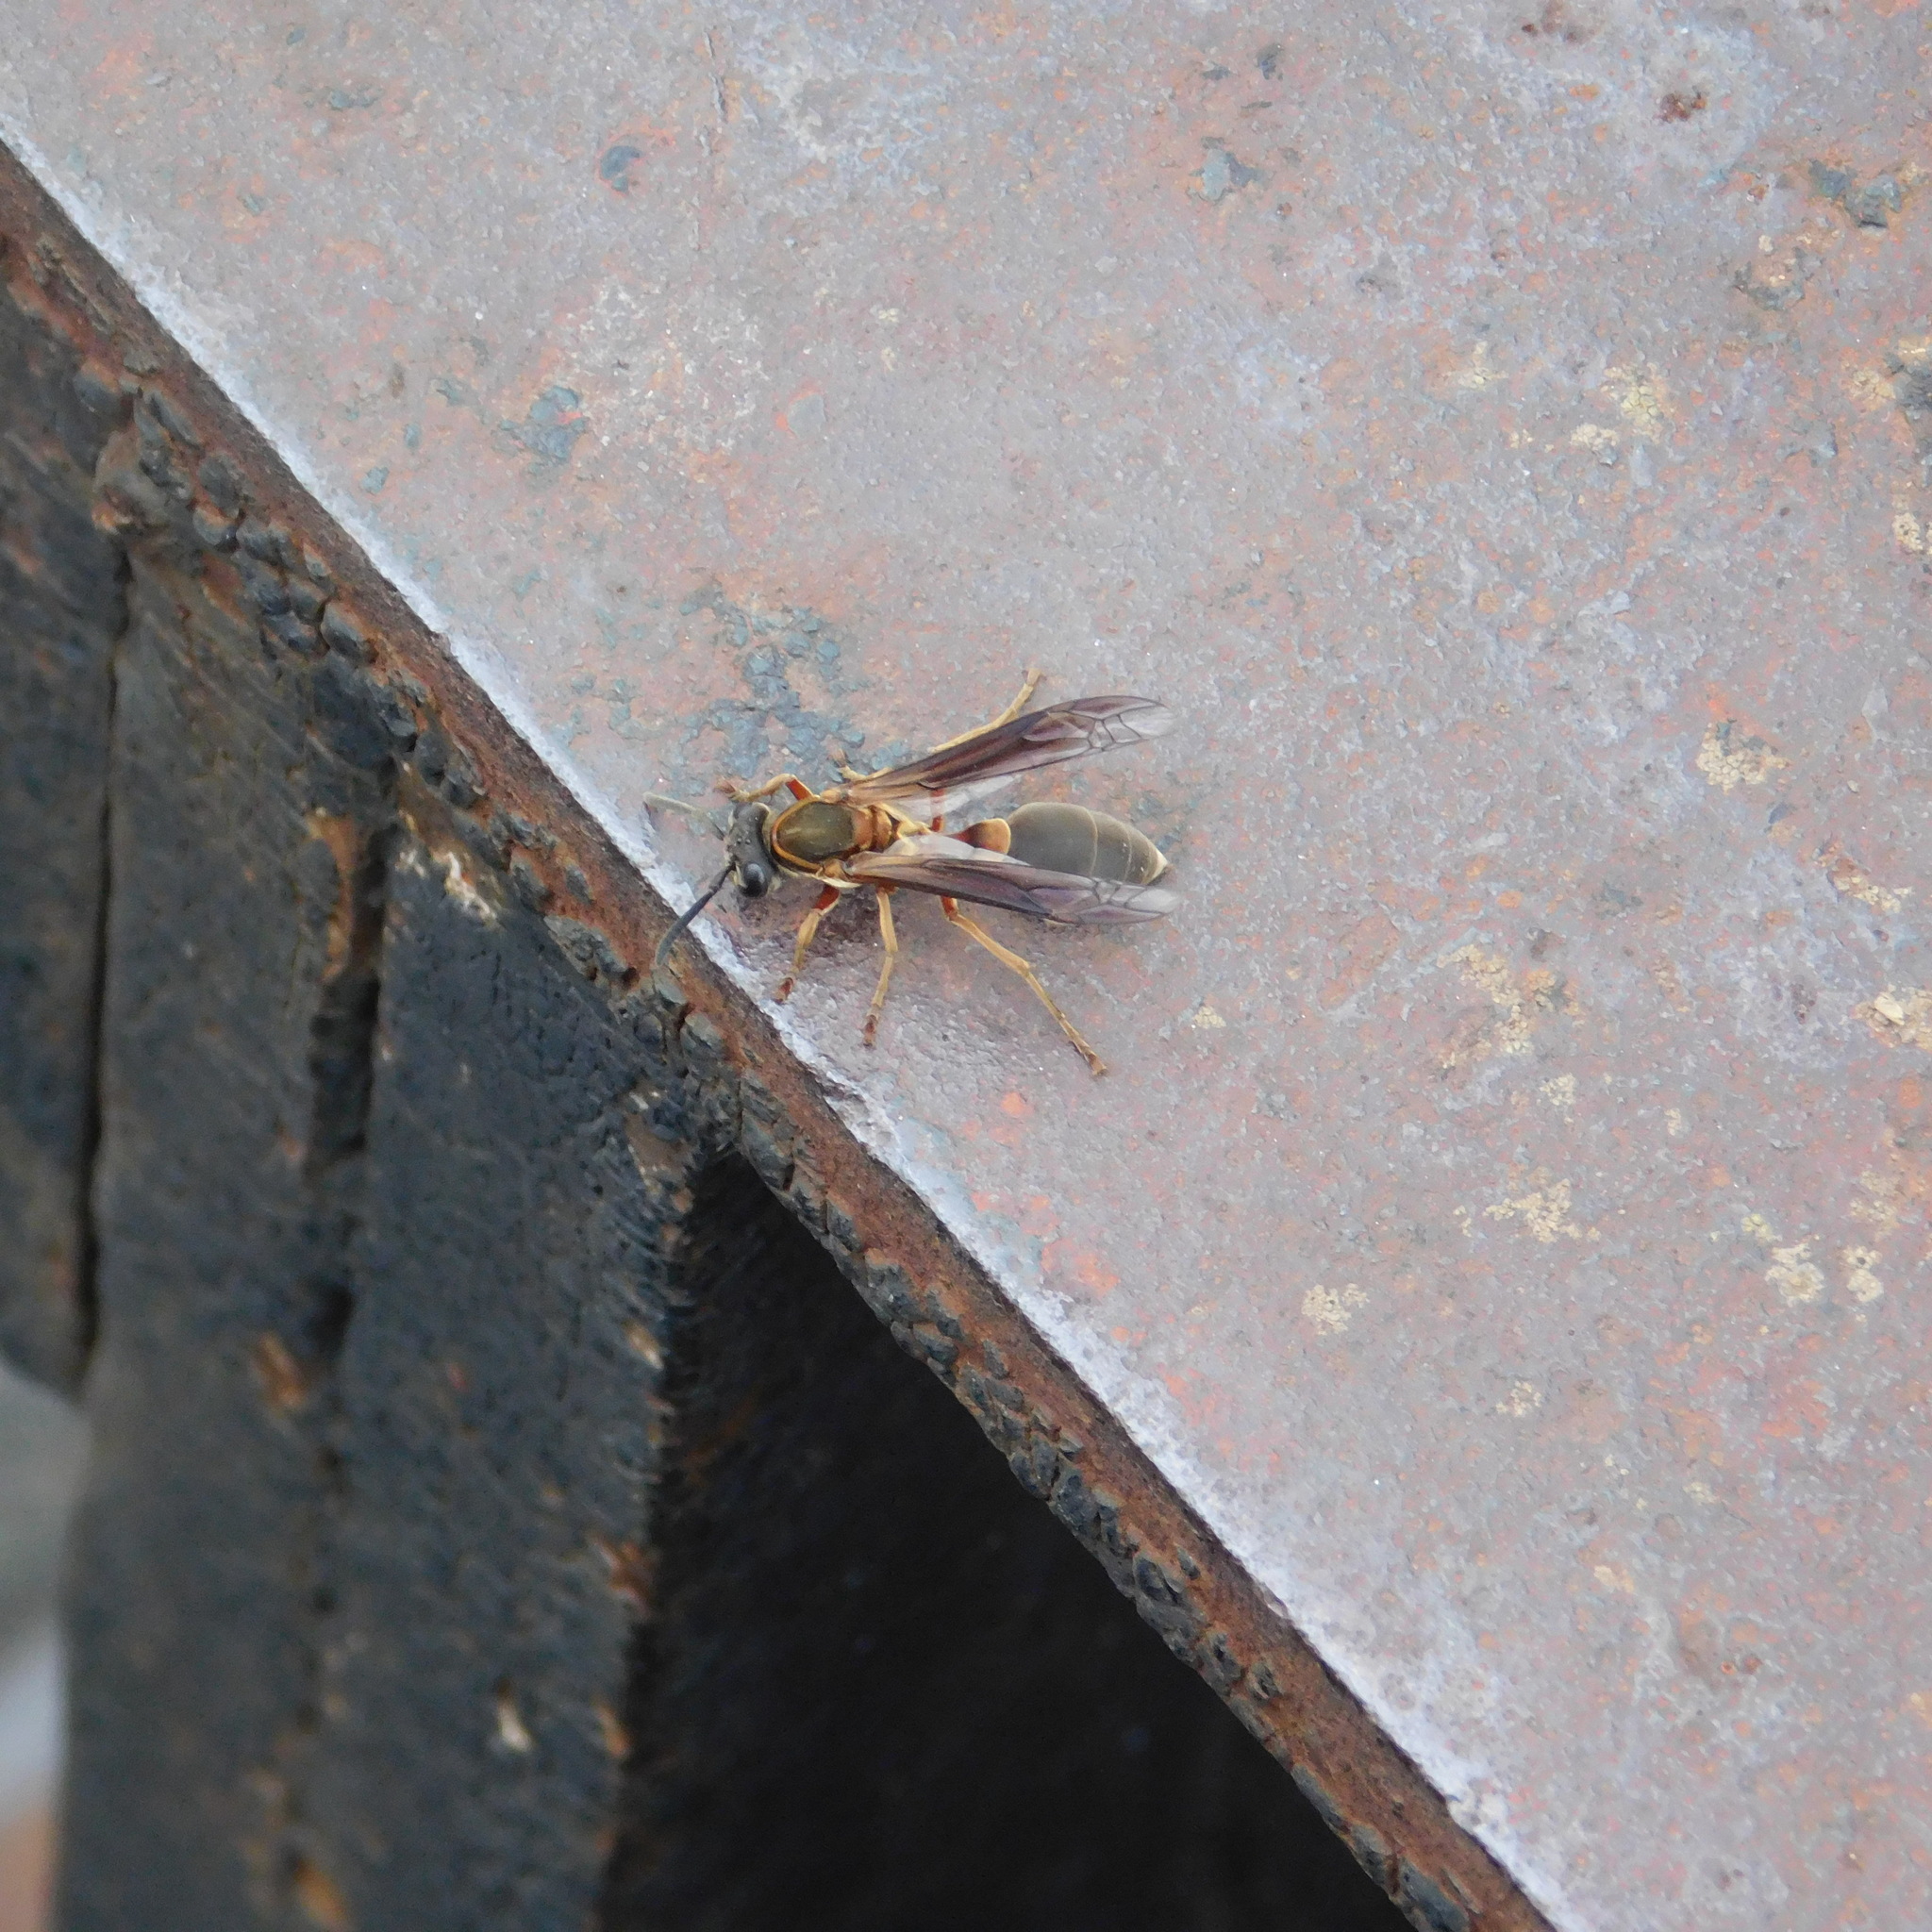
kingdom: Animalia
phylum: Arthropoda
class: Insecta
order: Hymenoptera
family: Eumenidae
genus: Polybia
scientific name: Polybia sericea
